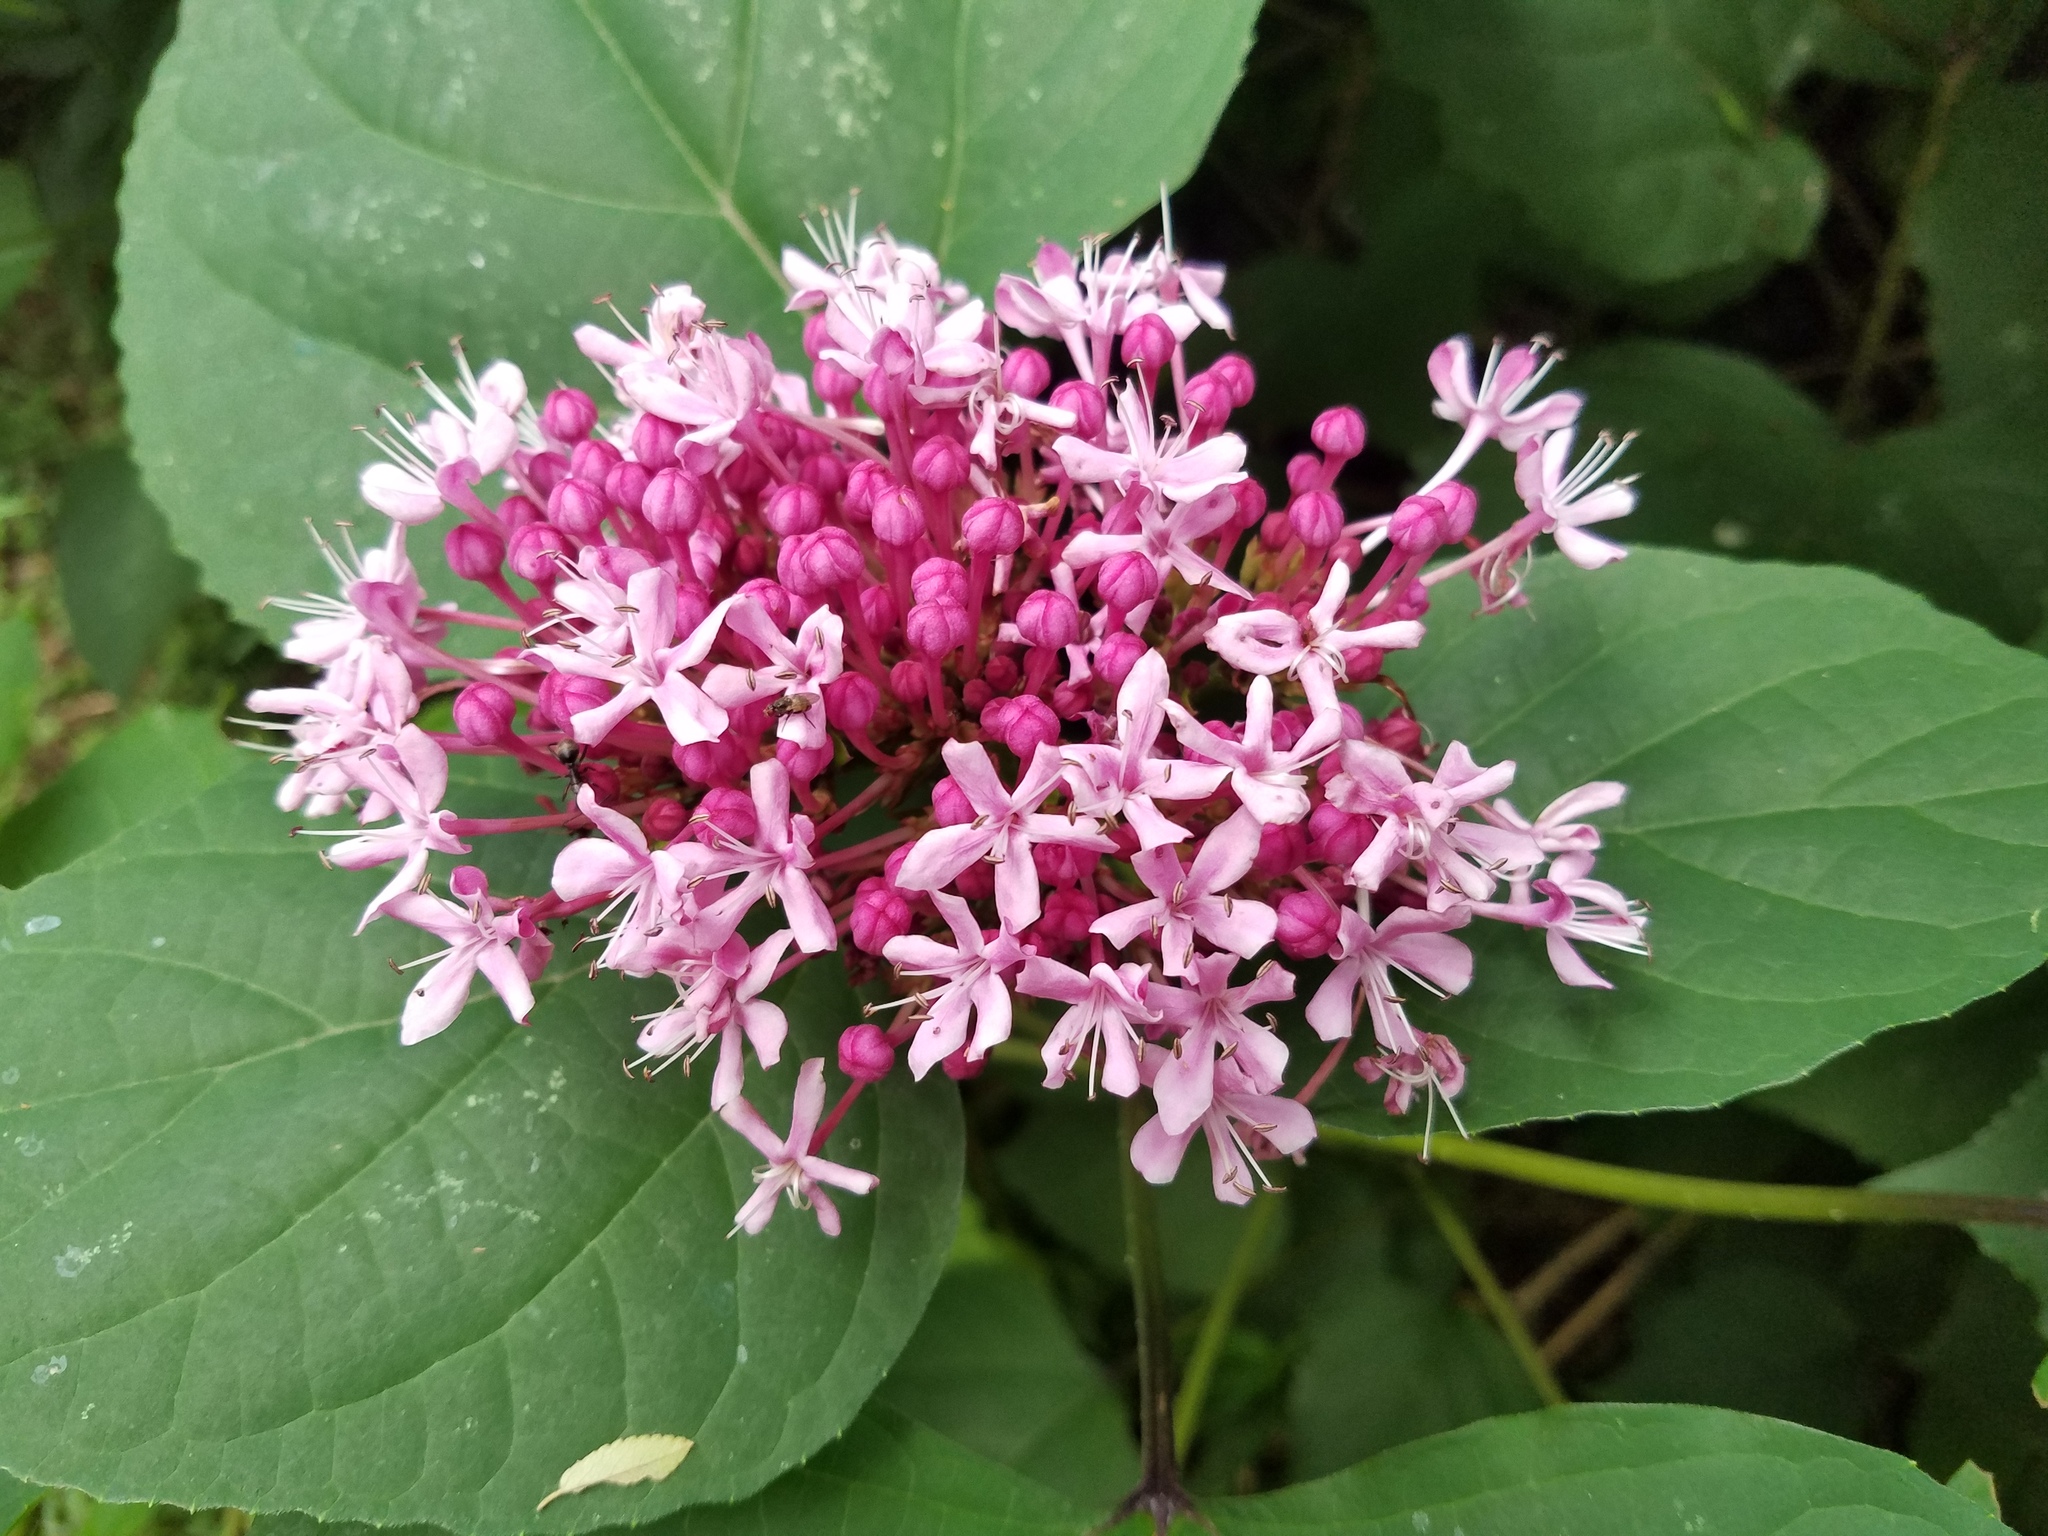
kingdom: Plantae
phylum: Tracheophyta
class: Magnoliopsida
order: Lamiales
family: Lamiaceae
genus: Clerodendrum
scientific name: Clerodendrum bungei
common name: Rose glorybower
